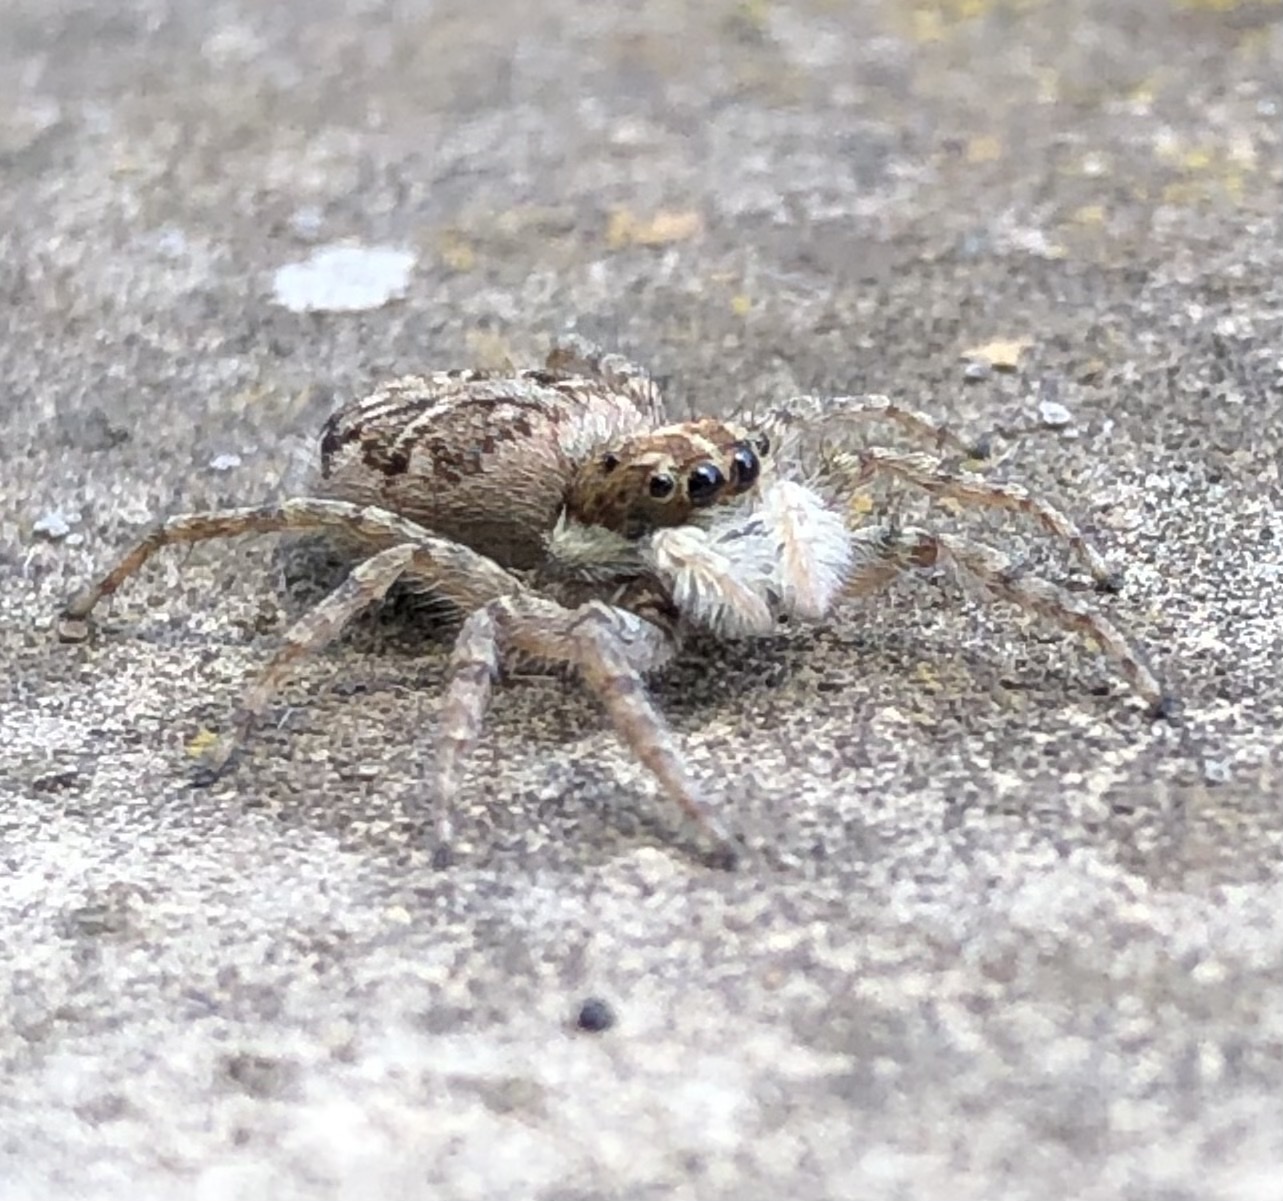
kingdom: Animalia
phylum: Arthropoda
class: Arachnida
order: Araneae
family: Salticidae
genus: Menemerus
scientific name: Menemerus semilimbatus
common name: Jumping spider
